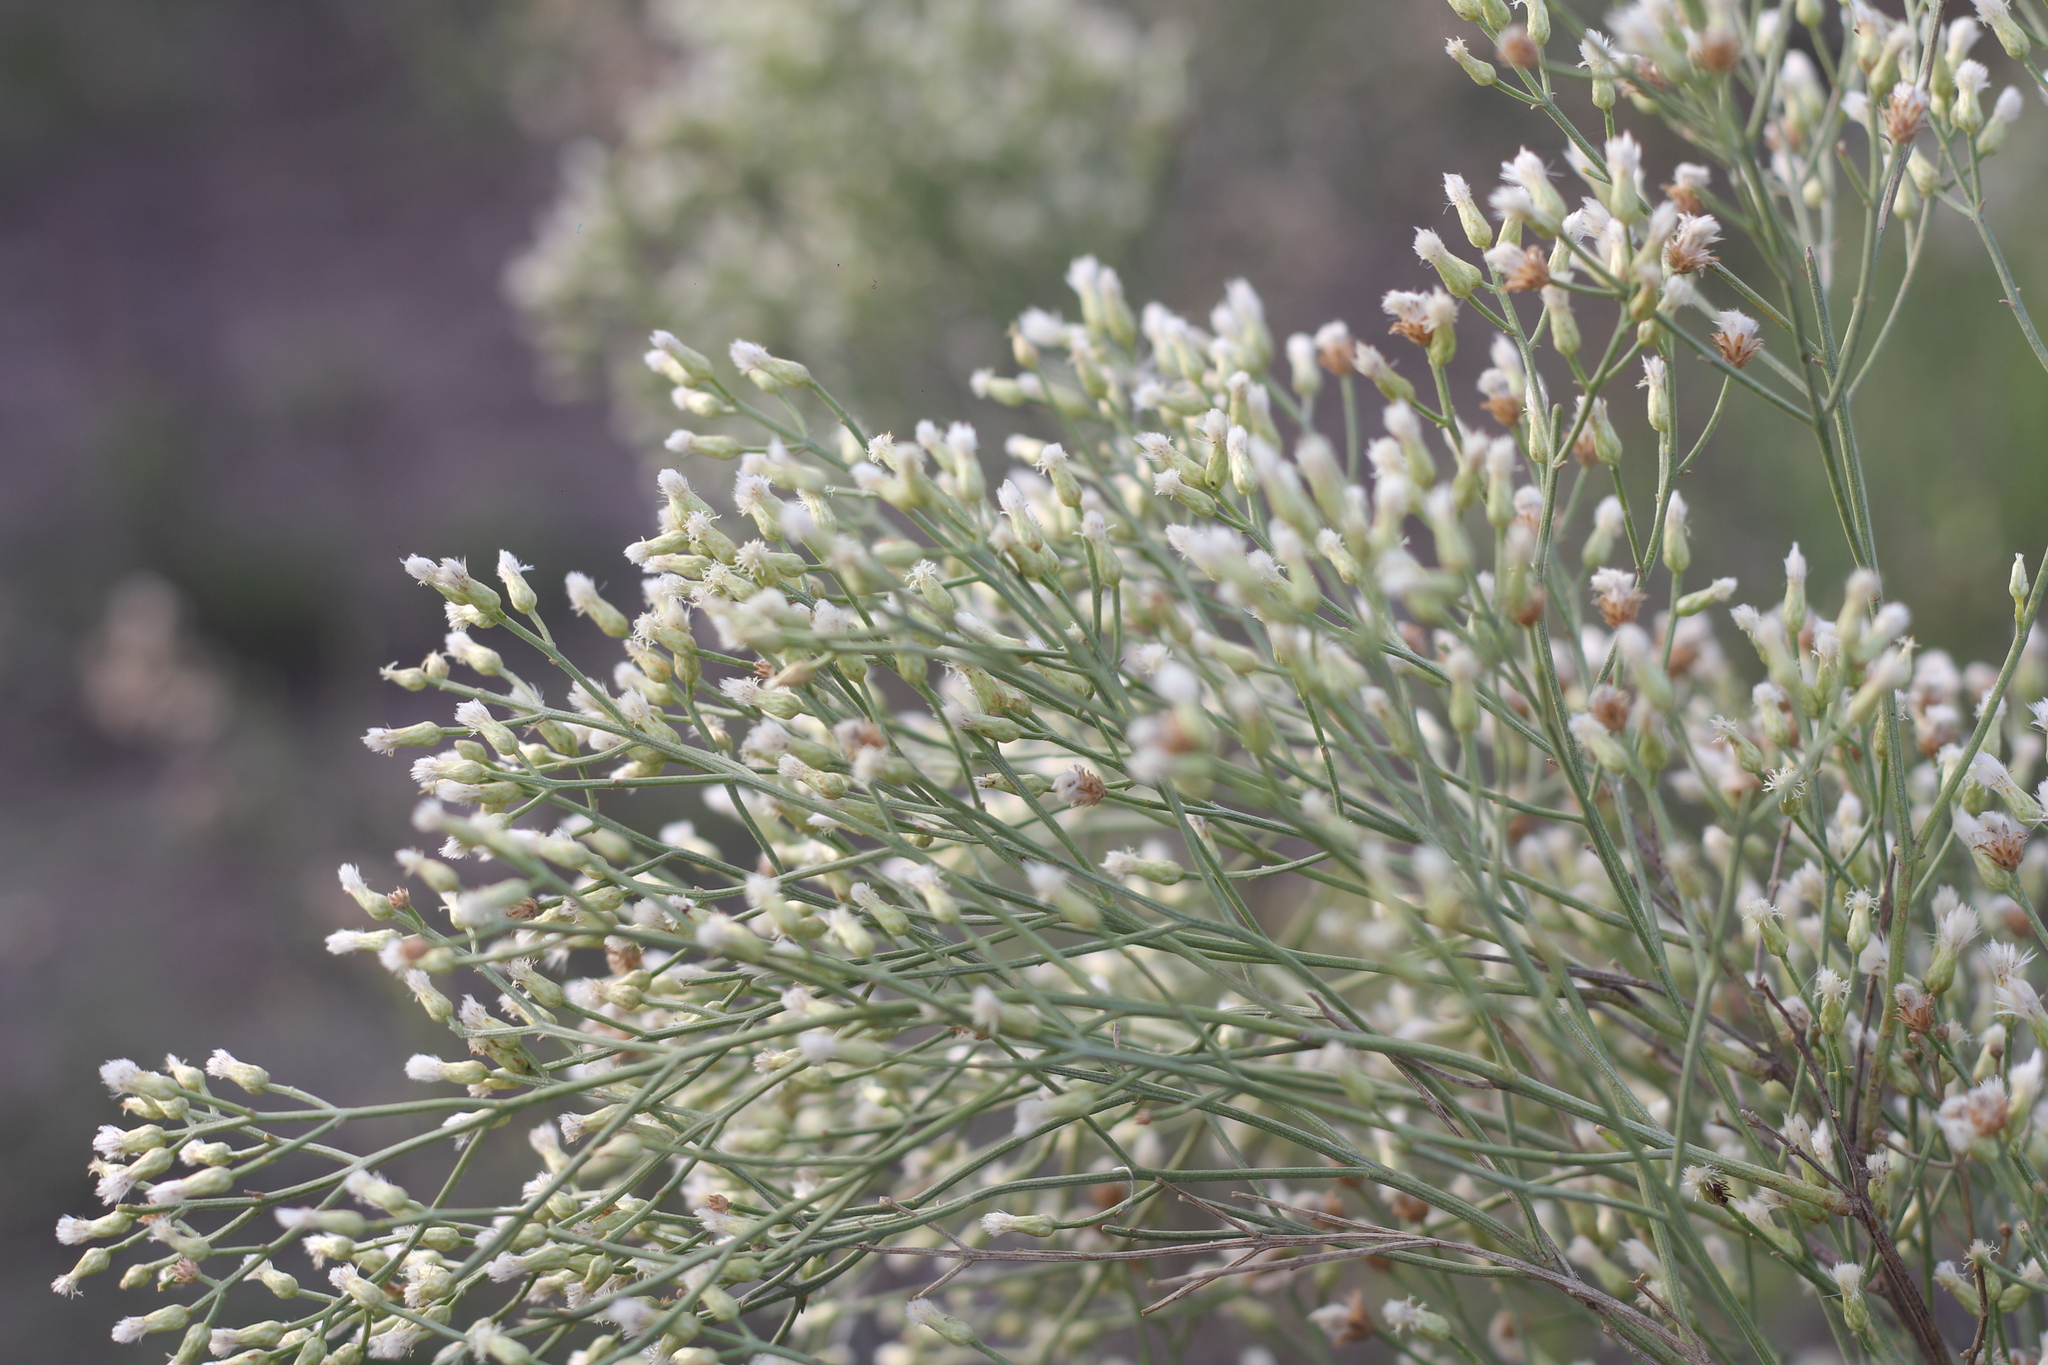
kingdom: Plantae
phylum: Tracheophyta
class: Magnoliopsida
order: Asterales
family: Asteraceae
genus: Baccharis
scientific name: Baccharis notosergila
